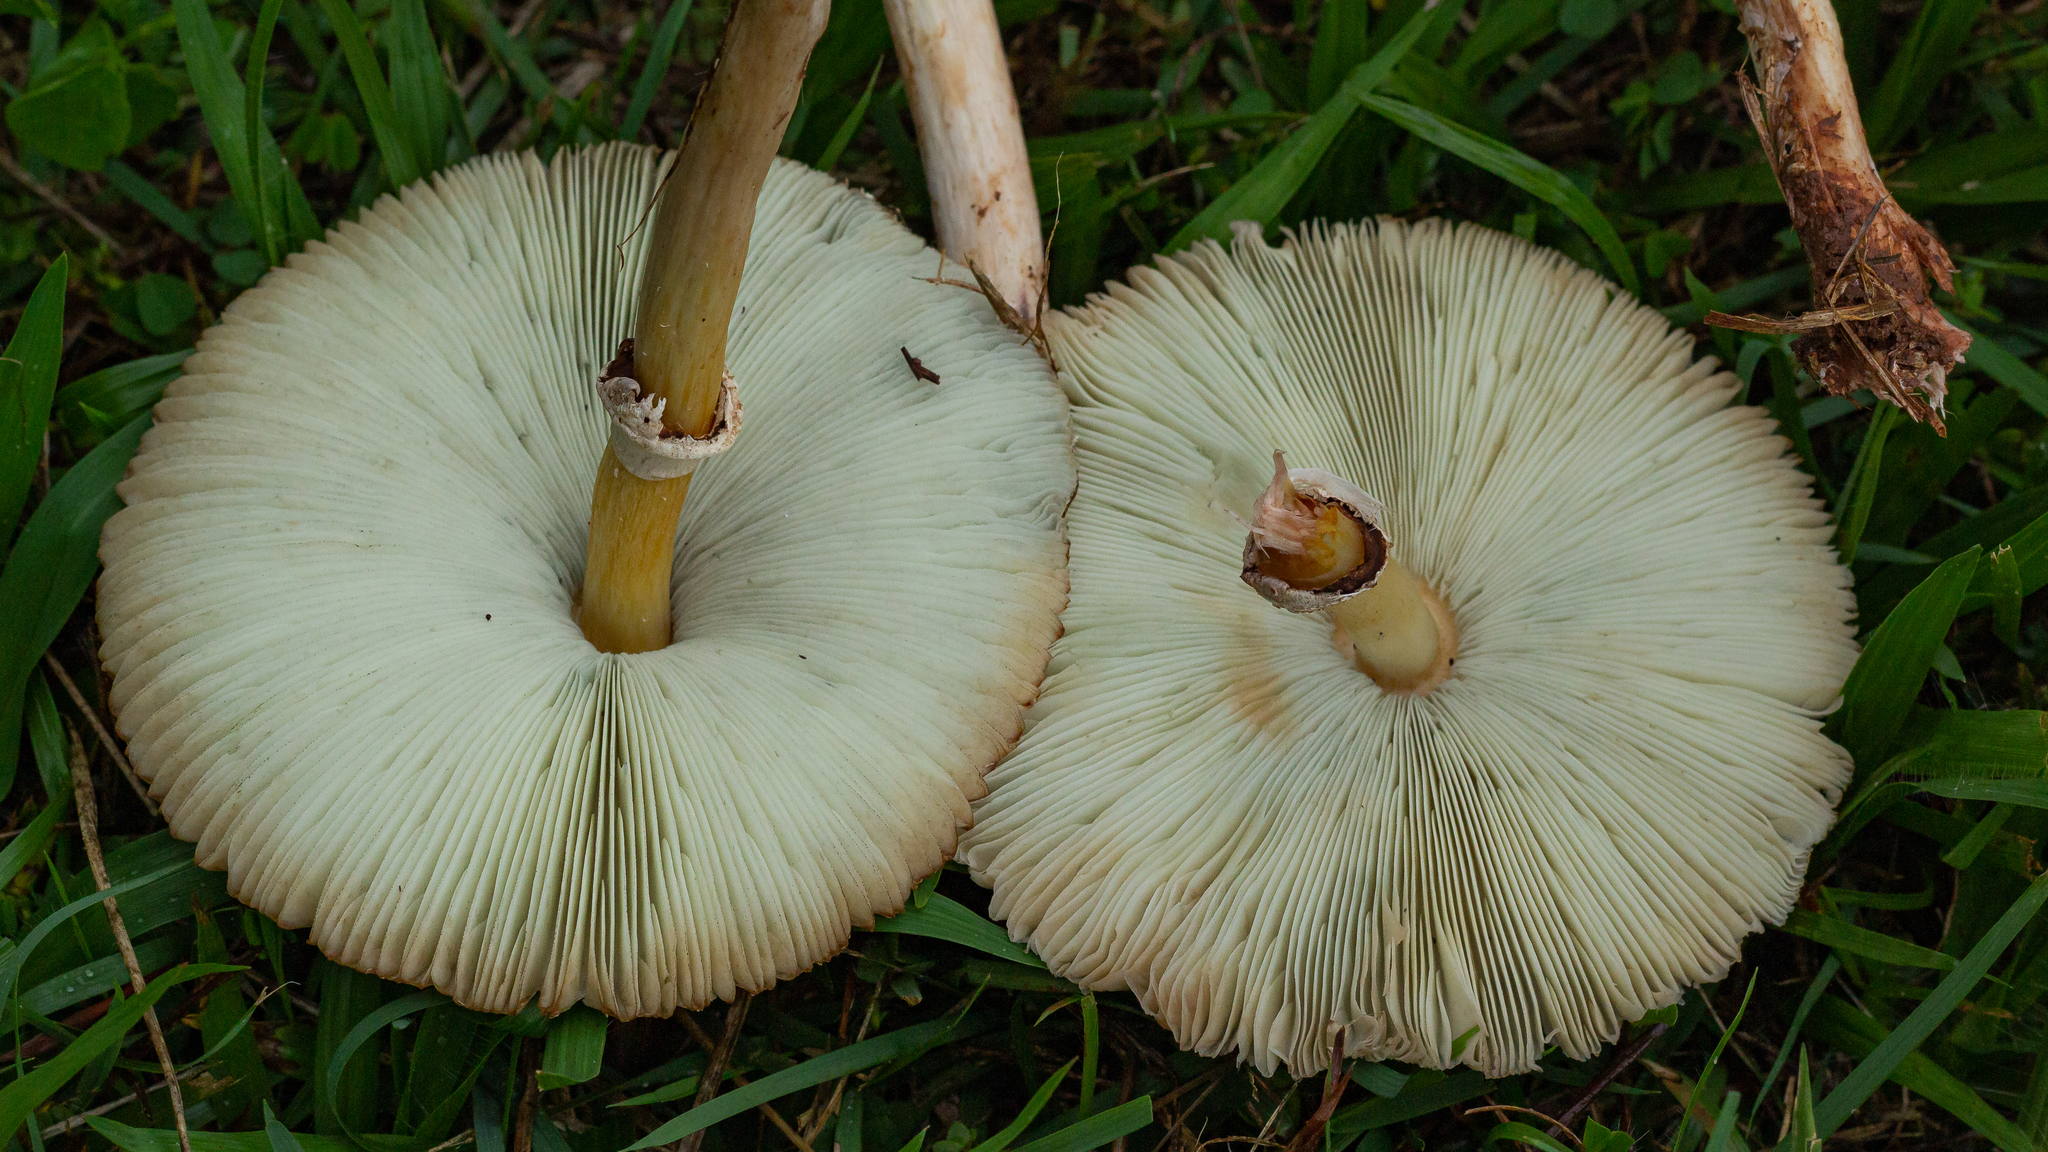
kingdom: Fungi
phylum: Basidiomycota
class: Agaricomycetes
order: Agaricales
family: Agaricaceae
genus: Chlorophyllum
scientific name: Chlorophyllum molybdites
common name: False parasol
